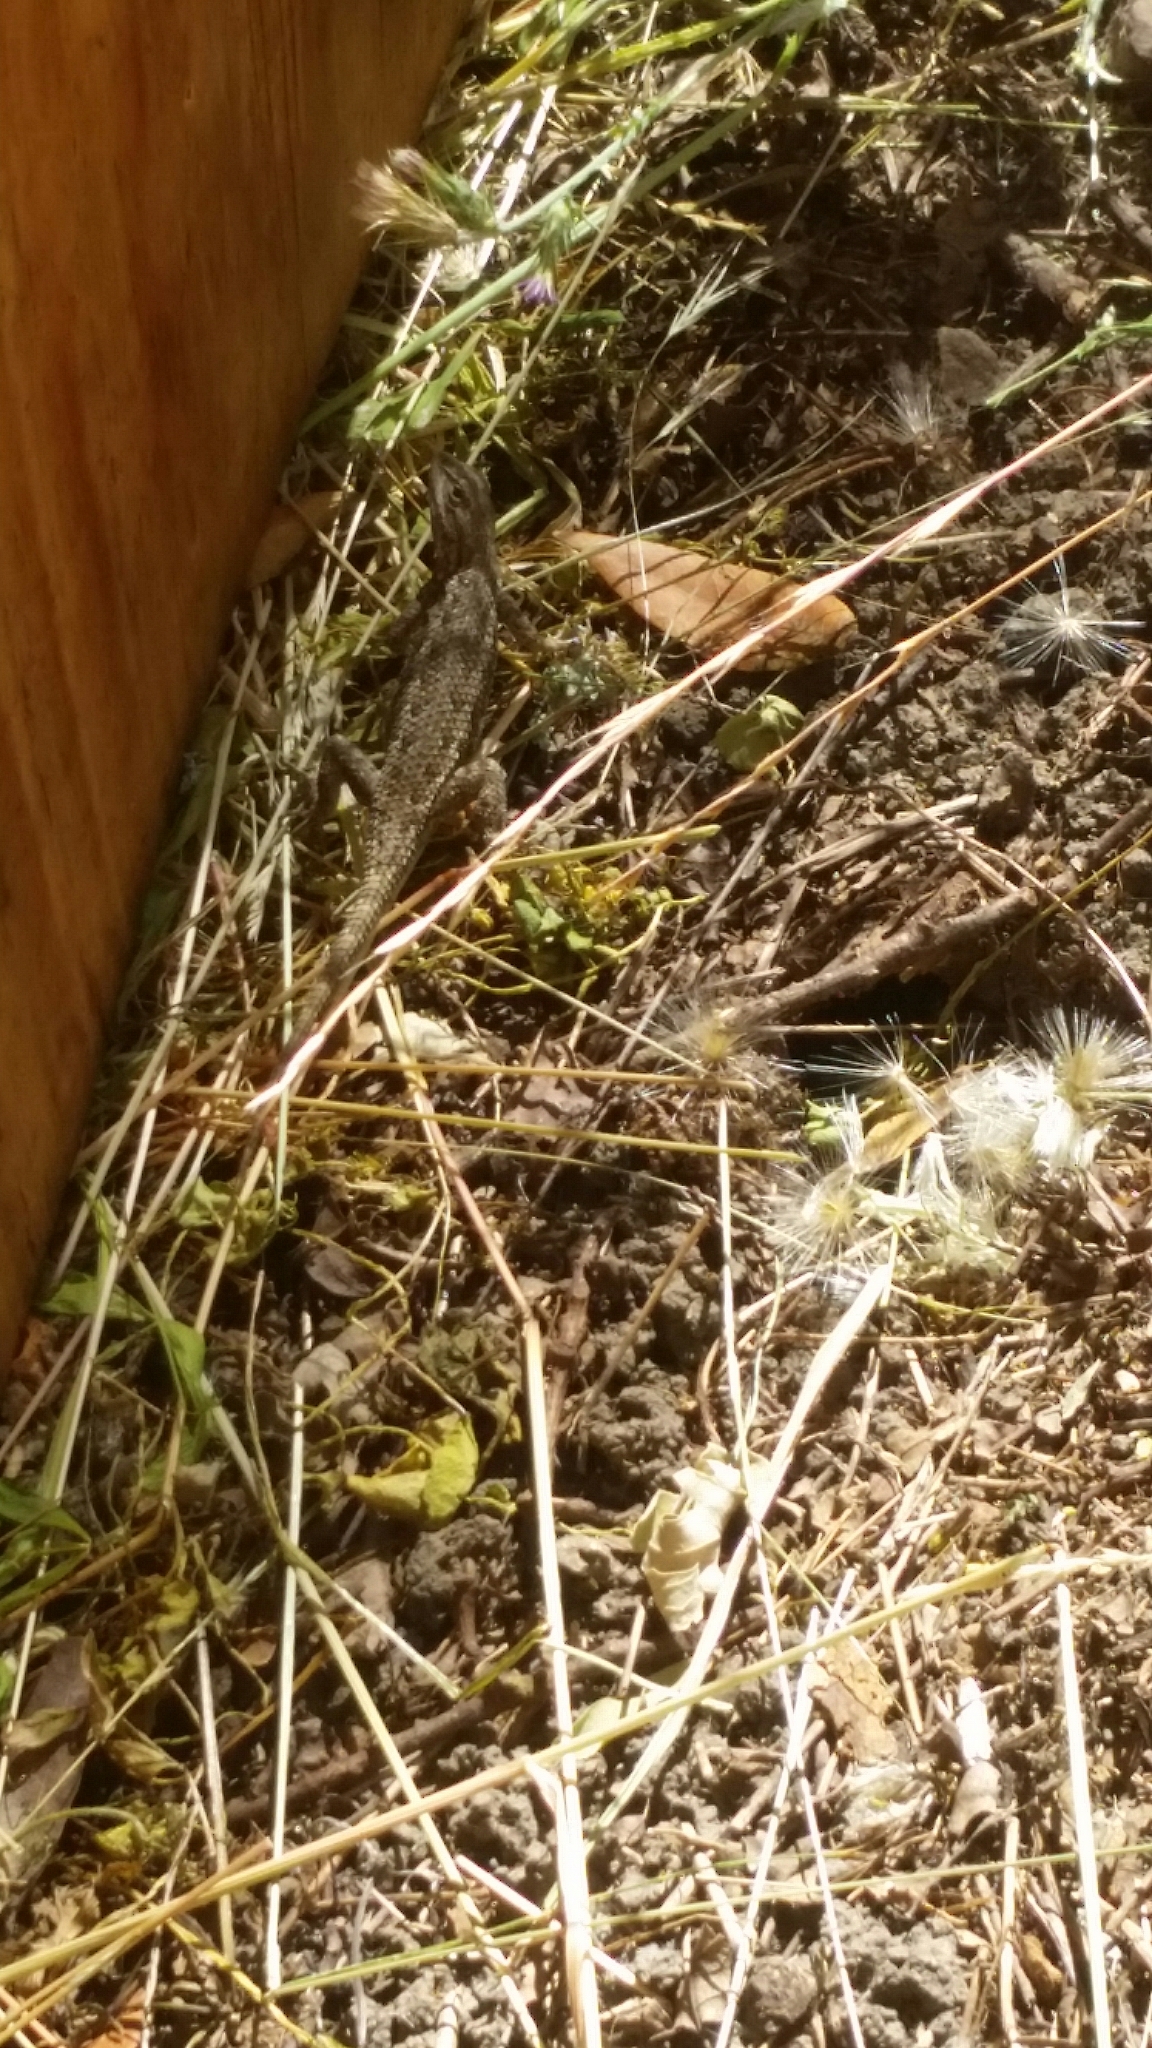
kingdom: Animalia
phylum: Chordata
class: Squamata
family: Phrynosomatidae
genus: Sceloporus
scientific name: Sceloporus occidentalis
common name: Western fence lizard
